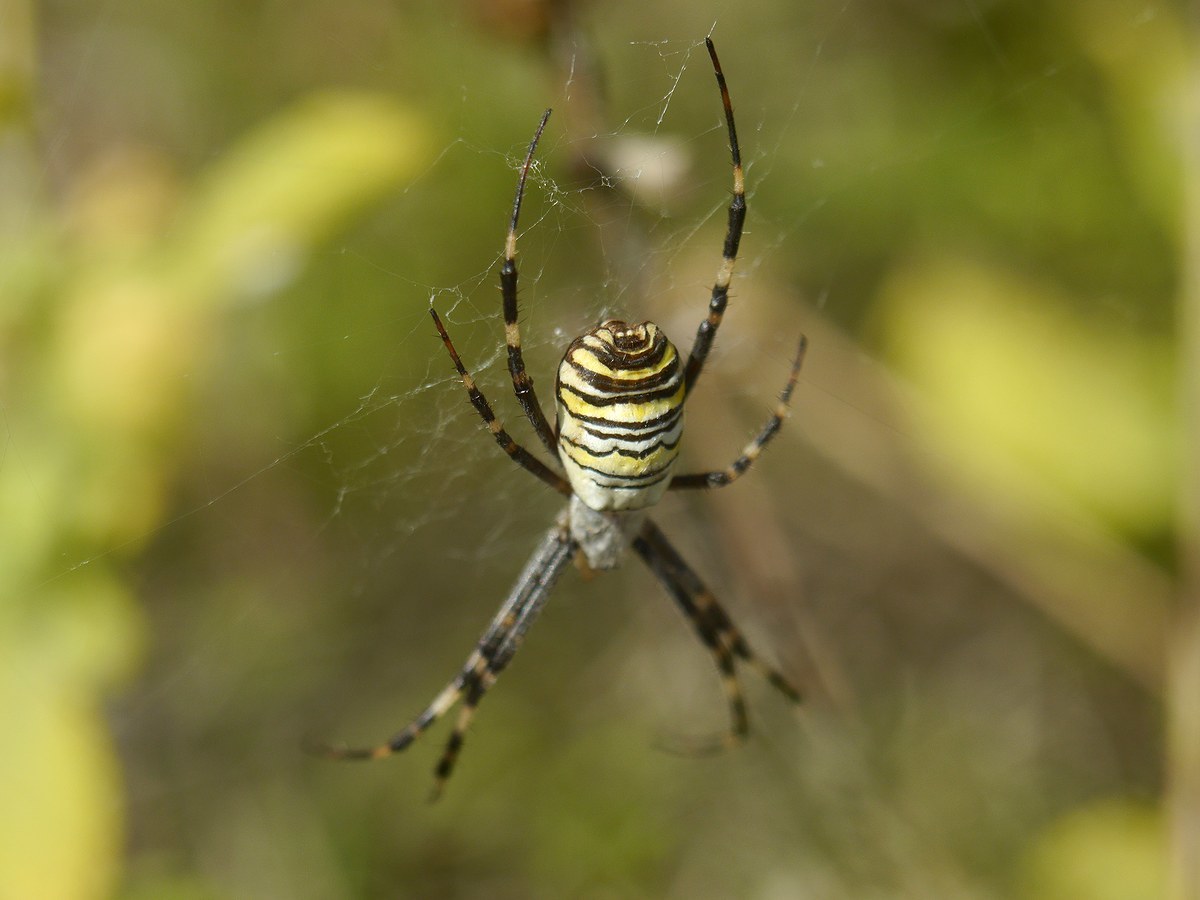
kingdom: Animalia
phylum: Arthropoda
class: Arachnida
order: Araneae
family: Araneidae
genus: Argiope
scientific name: Argiope bruennichi
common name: Wasp spider
